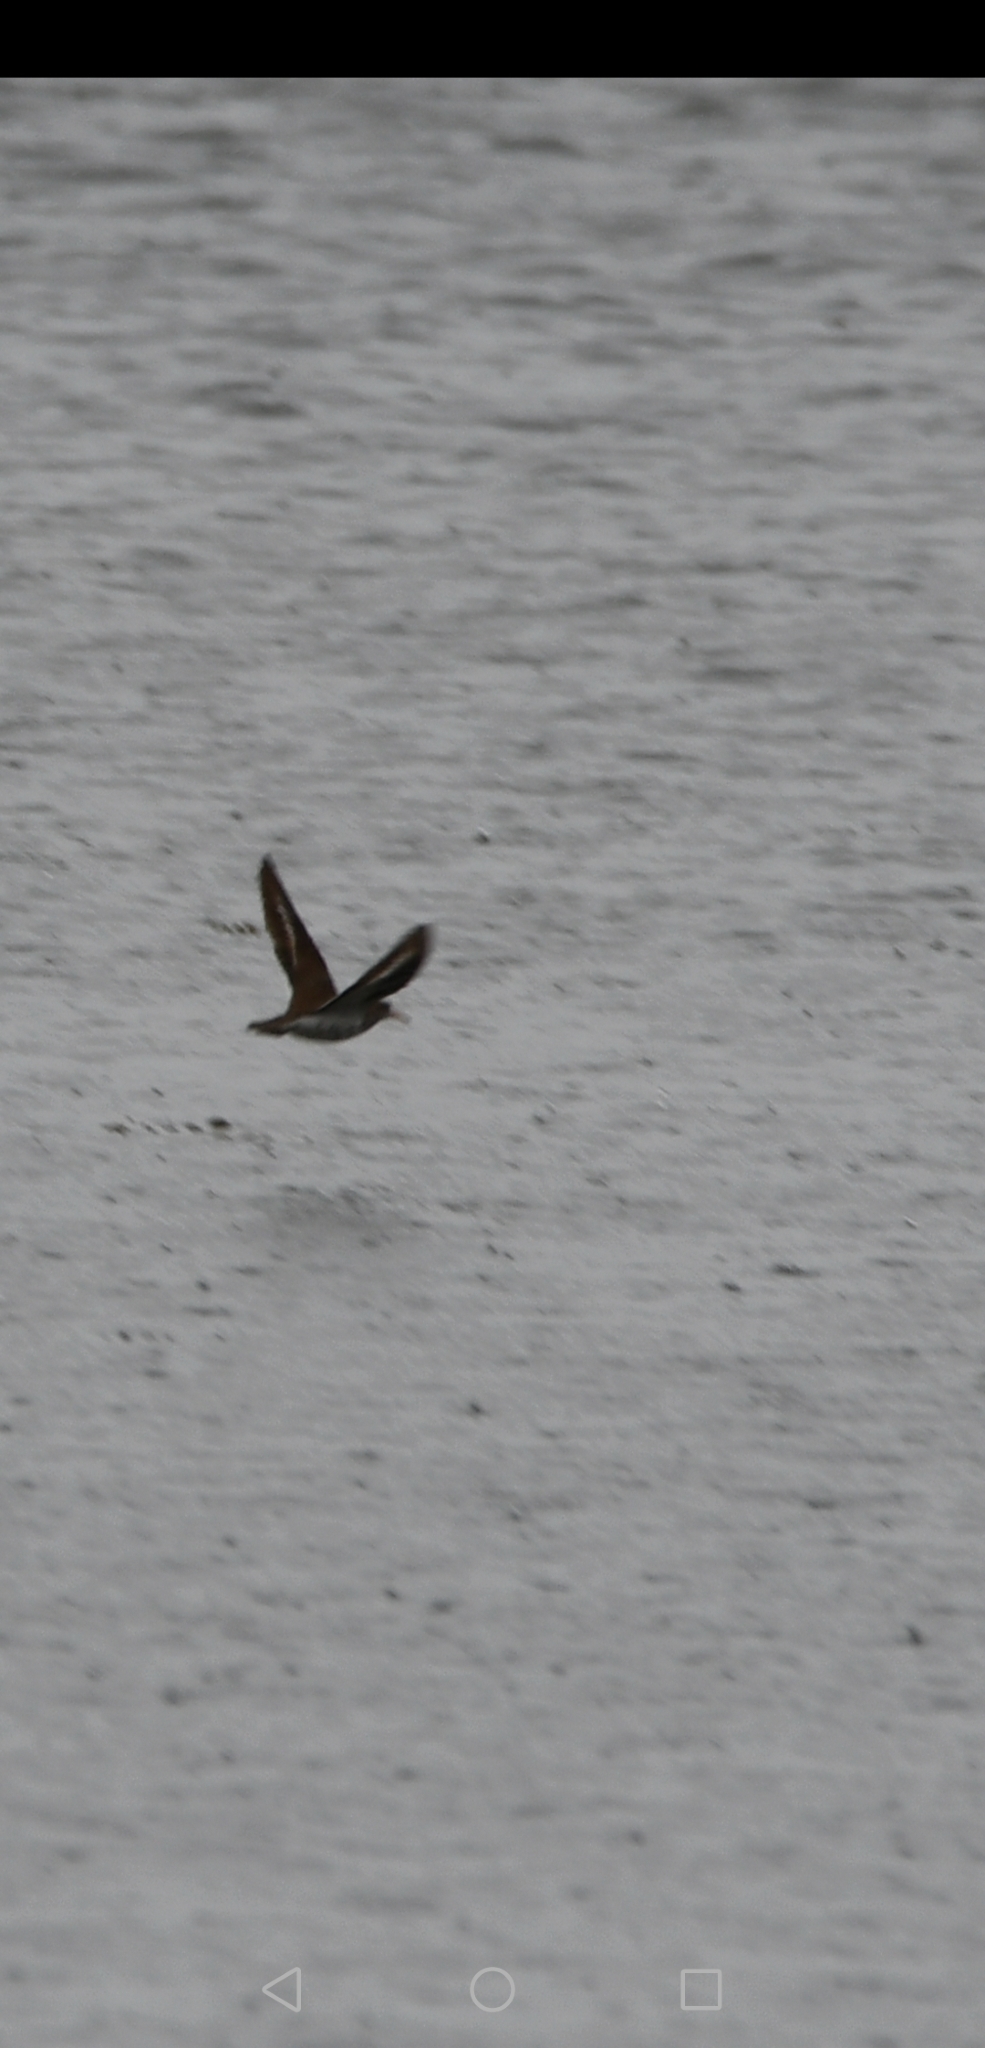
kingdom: Animalia
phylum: Chordata
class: Aves
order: Charadriiformes
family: Scolopacidae
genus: Actitis
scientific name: Actitis macularius
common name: Spotted sandpiper
